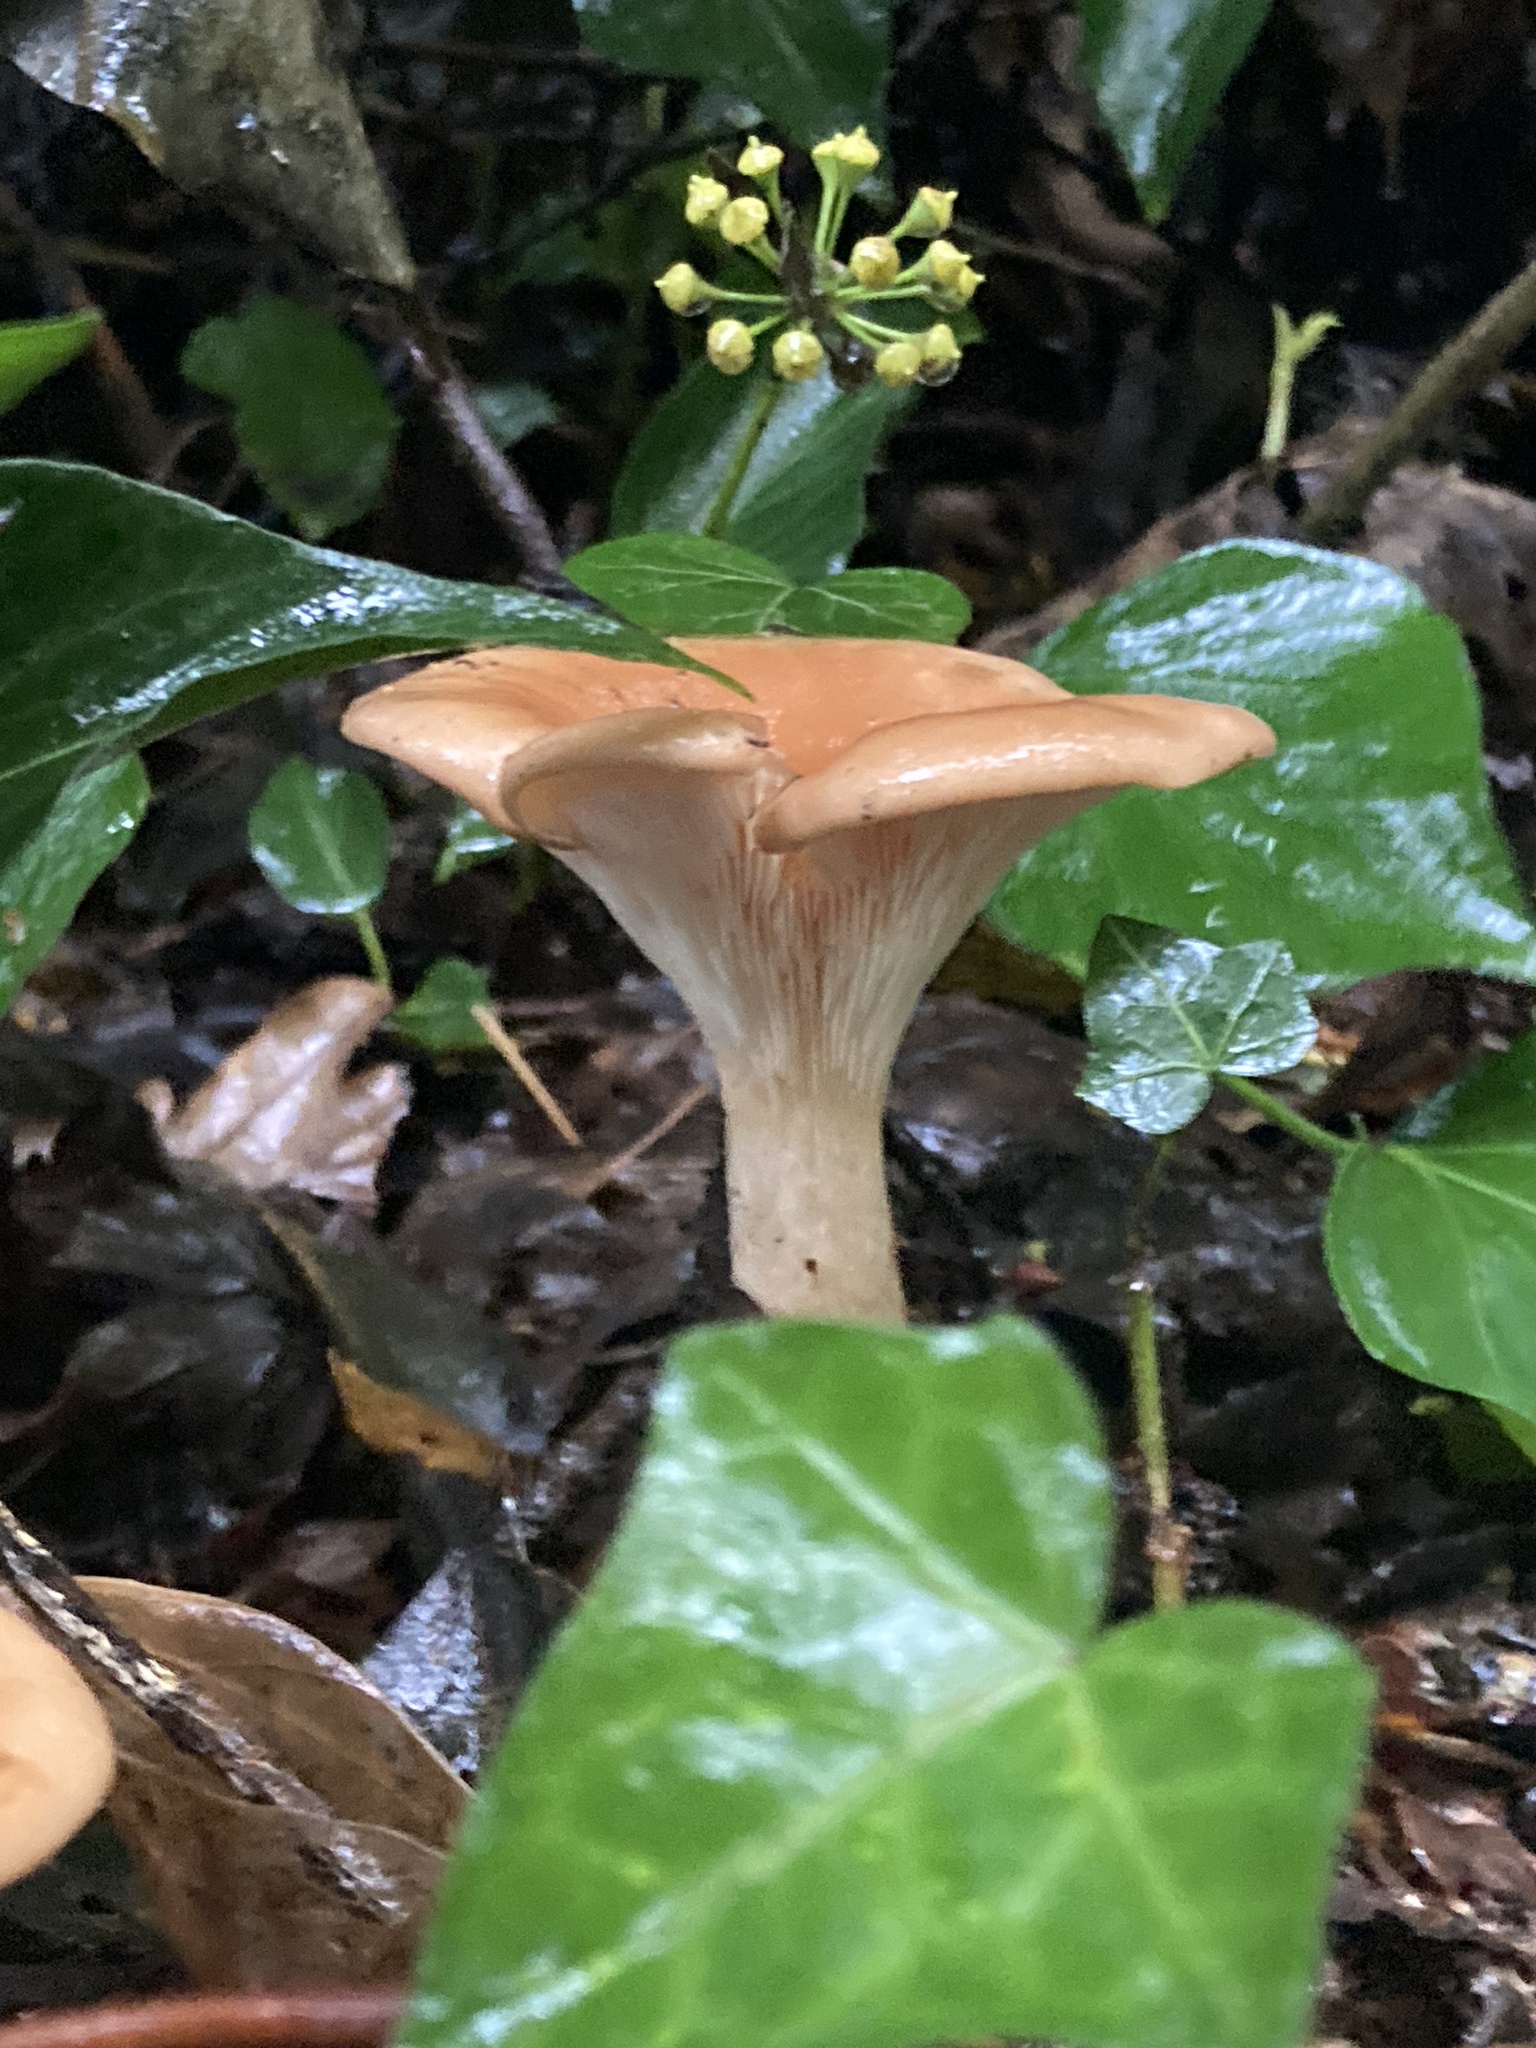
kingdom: Fungi
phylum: Basidiomycota
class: Agaricomycetes
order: Agaricales
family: Tricholomataceae
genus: Paralepista
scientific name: Paralepista flaccida
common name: Tawny funnel cap
